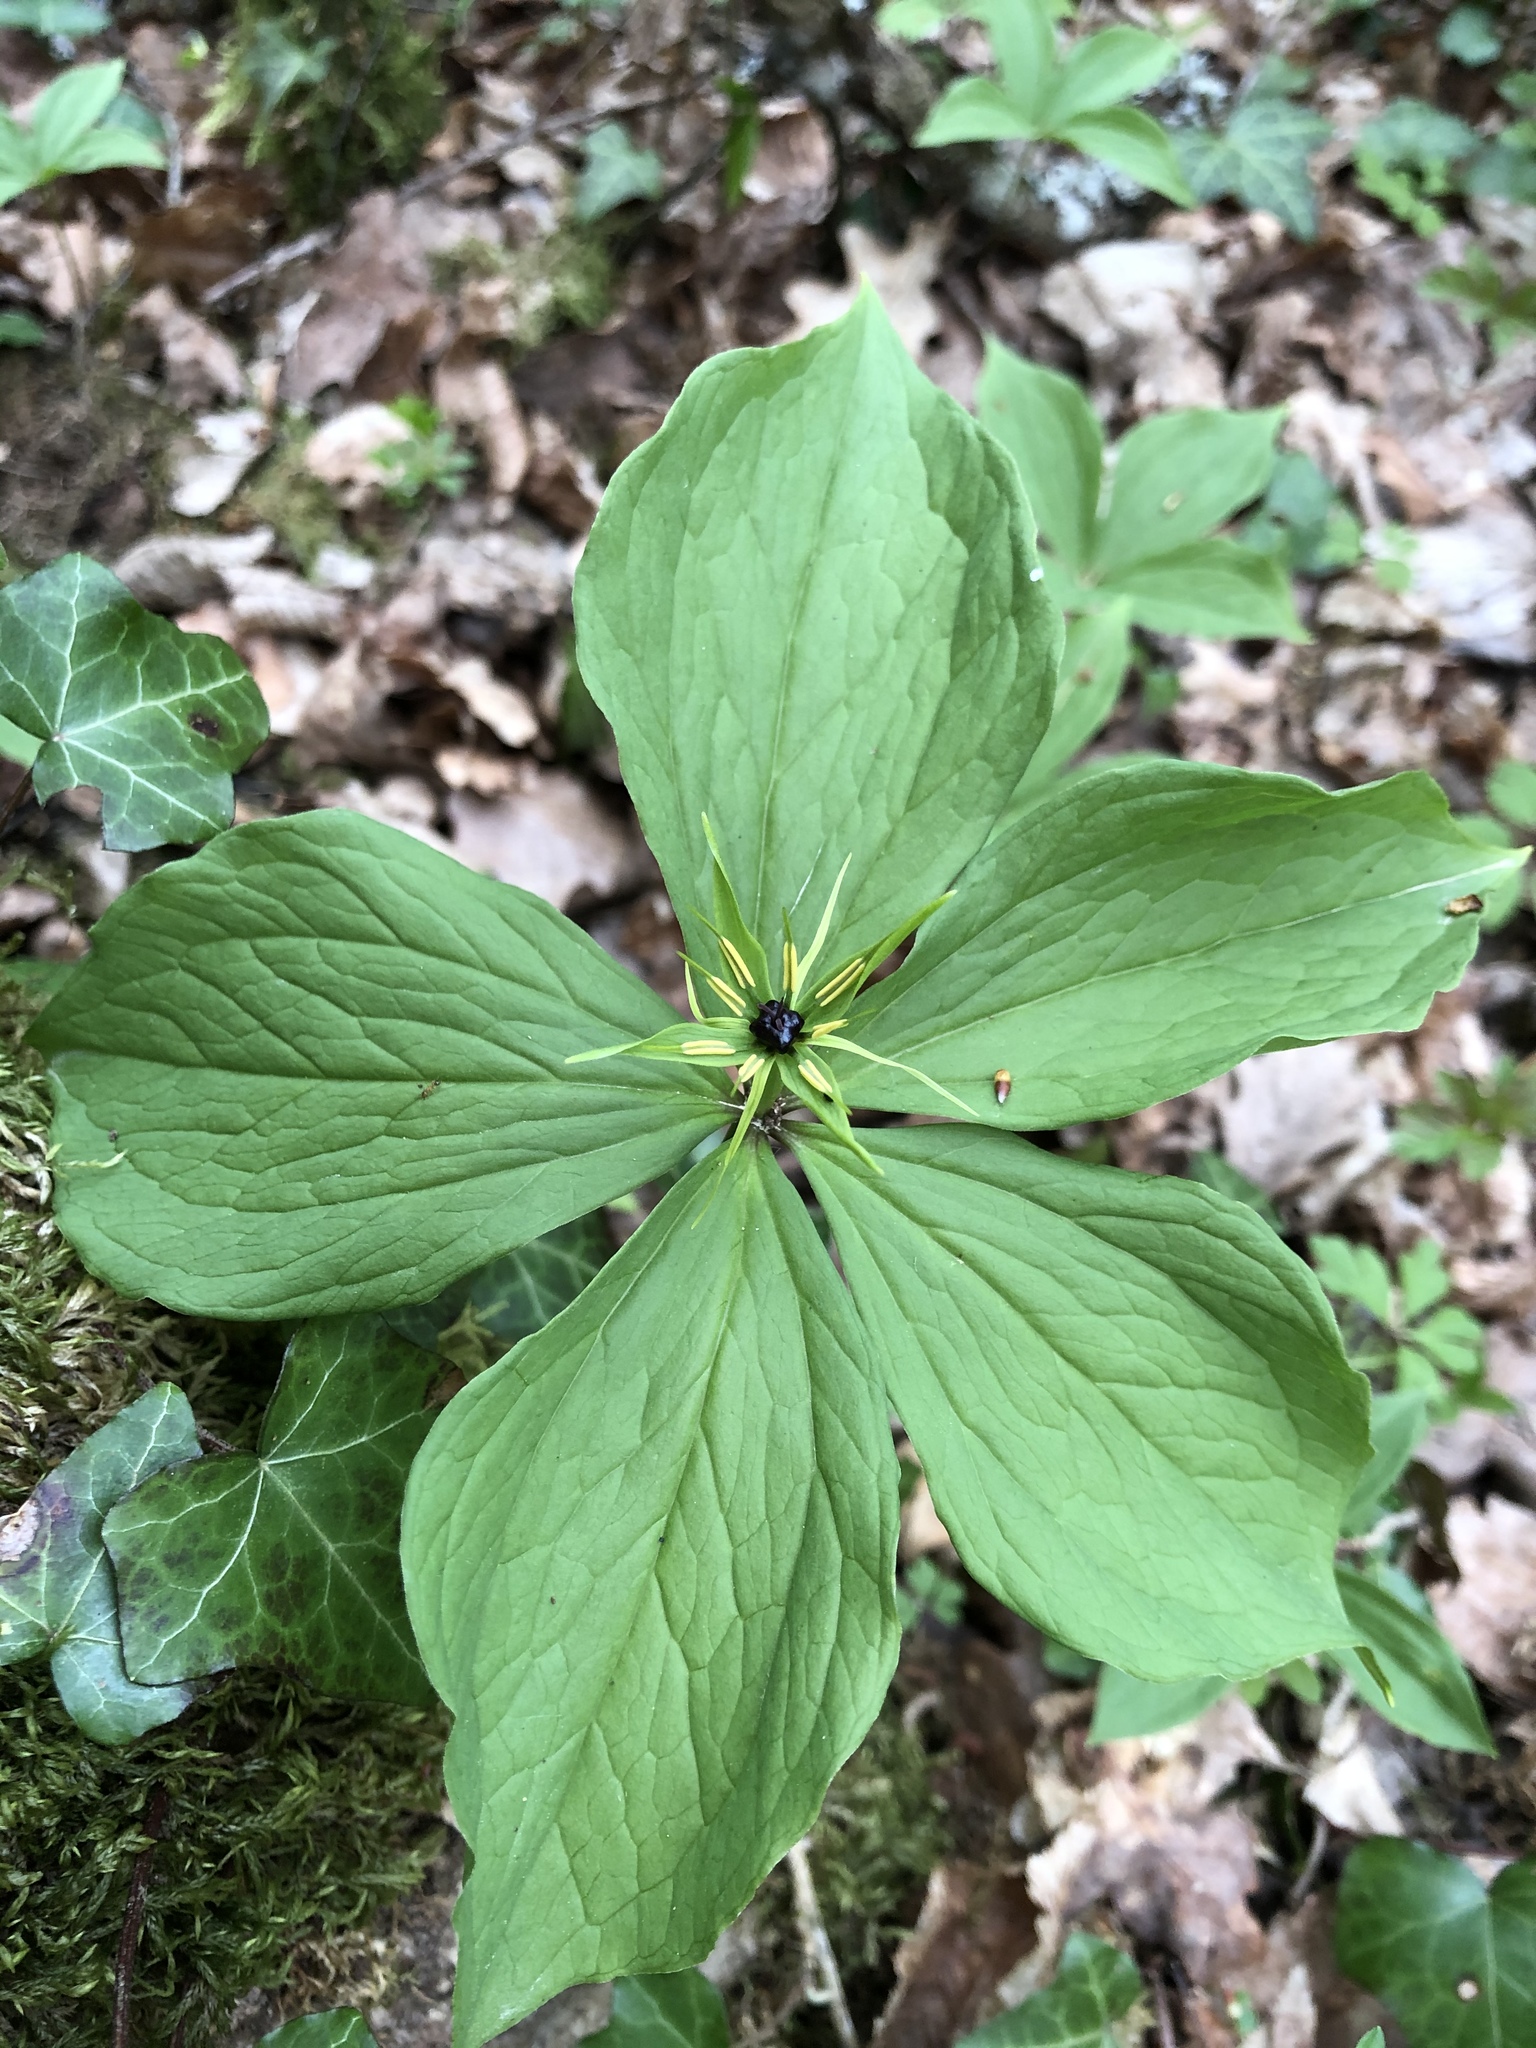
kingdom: Plantae
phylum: Tracheophyta
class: Liliopsida
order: Liliales
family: Melanthiaceae
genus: Paris
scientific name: Paris quadrifolia
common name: Herb-paris
